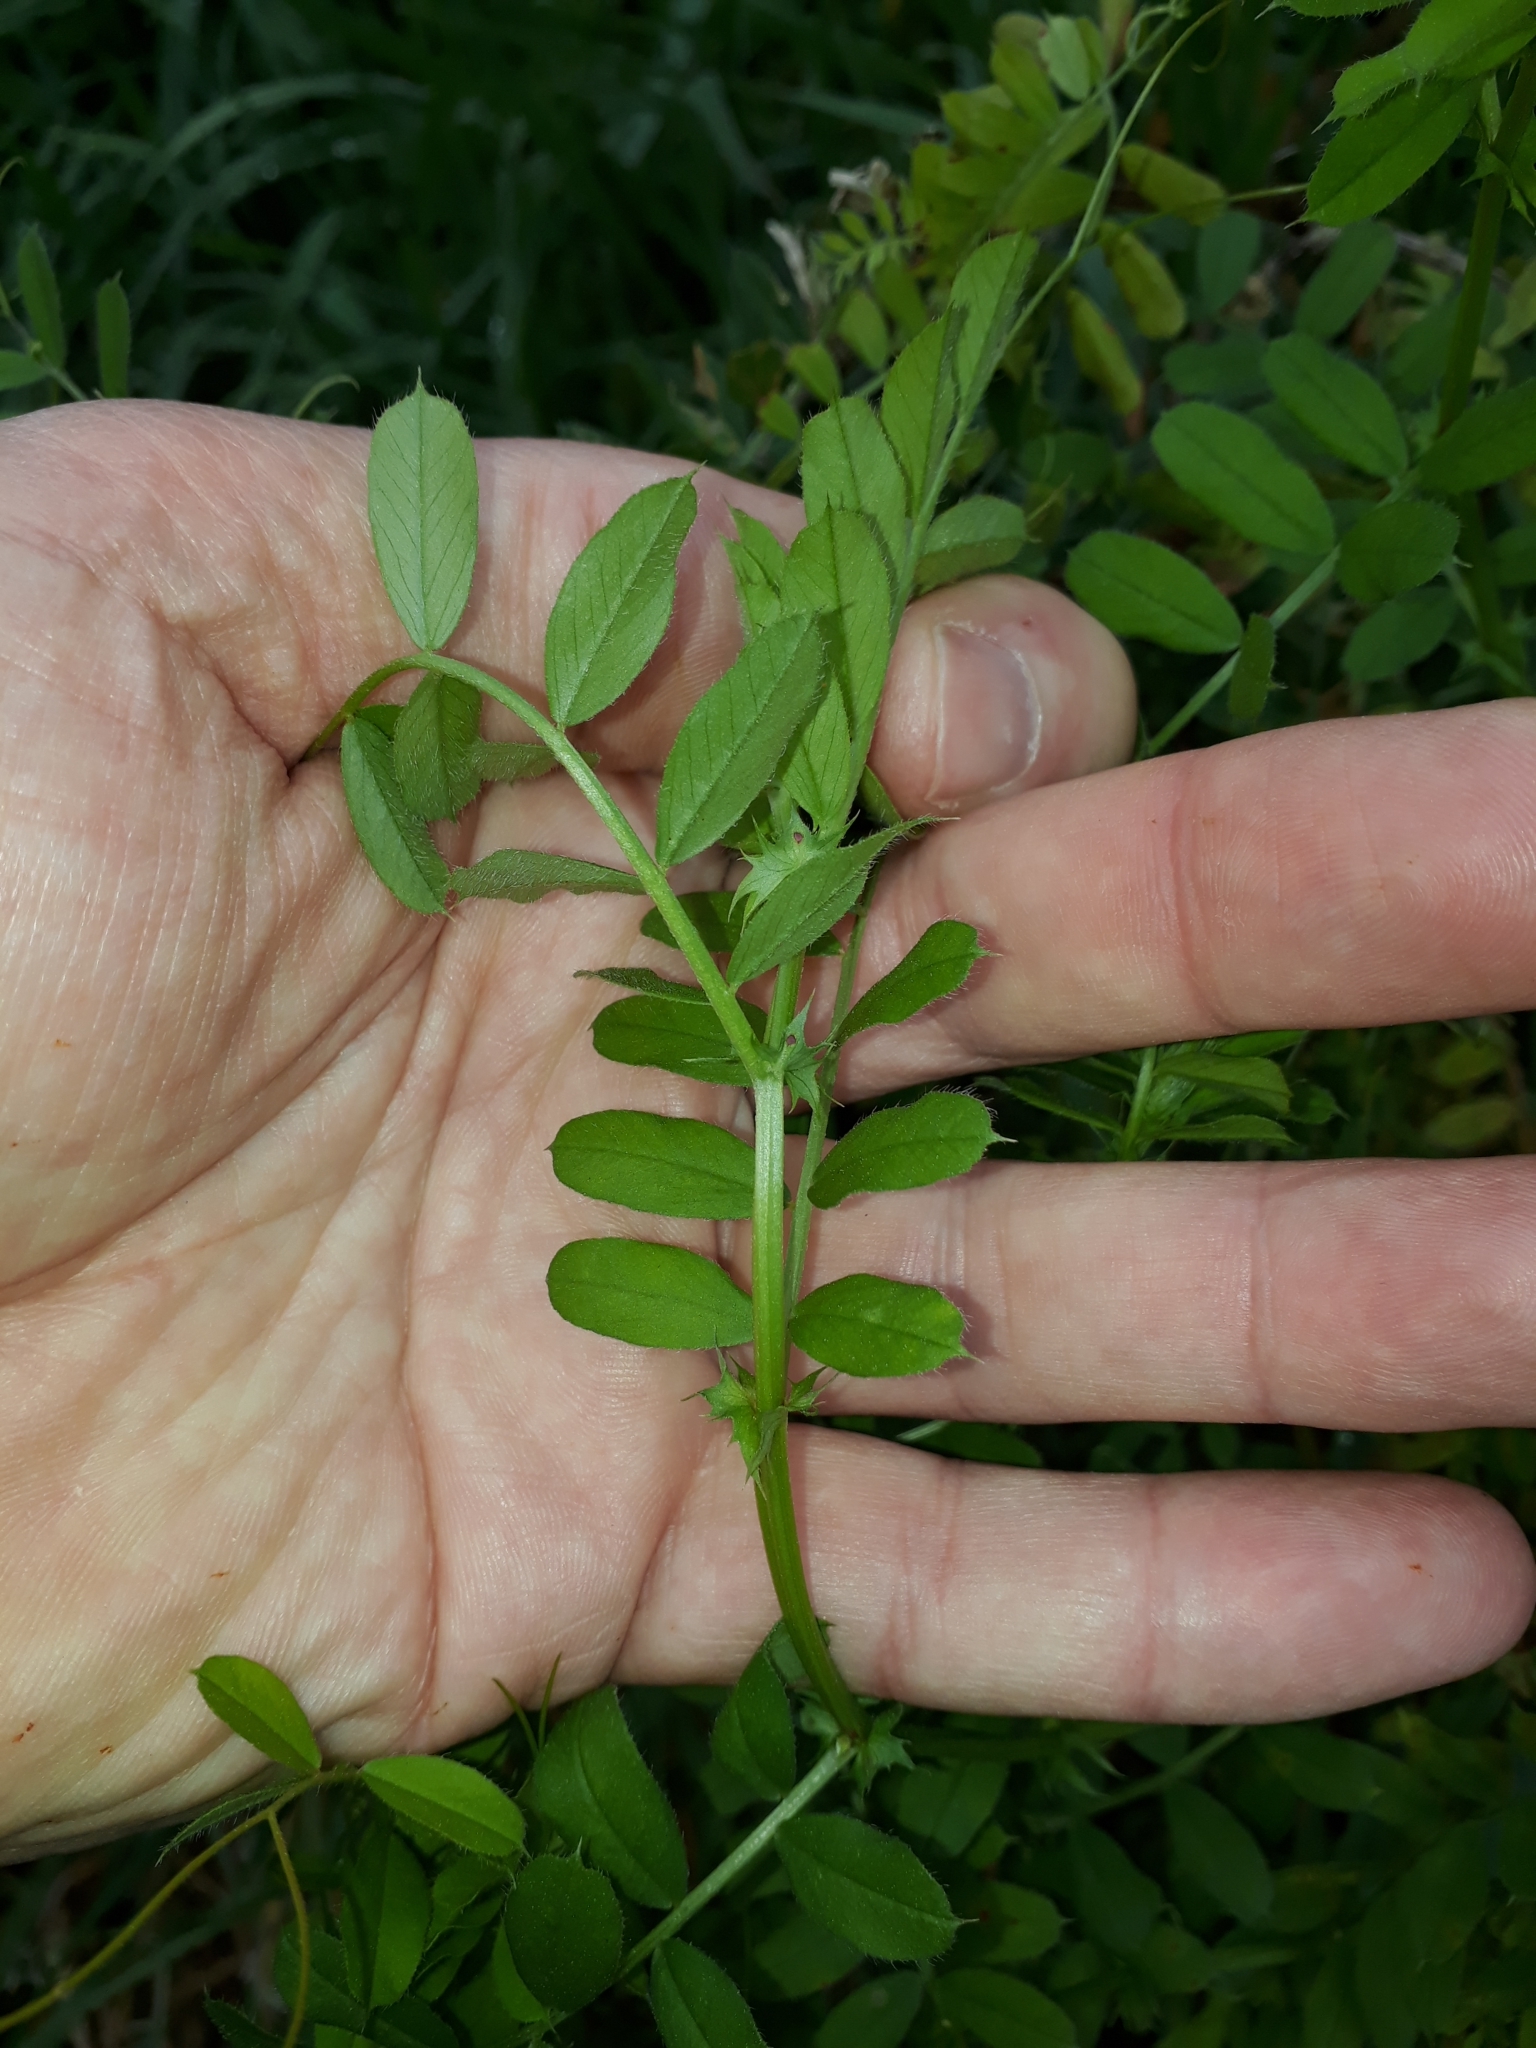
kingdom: Plantae
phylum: Tracheophyta
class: Magnoliopsida
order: Fabales
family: Fabaceae
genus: Vicia
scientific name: Vicia sativa
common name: Garden vetch
